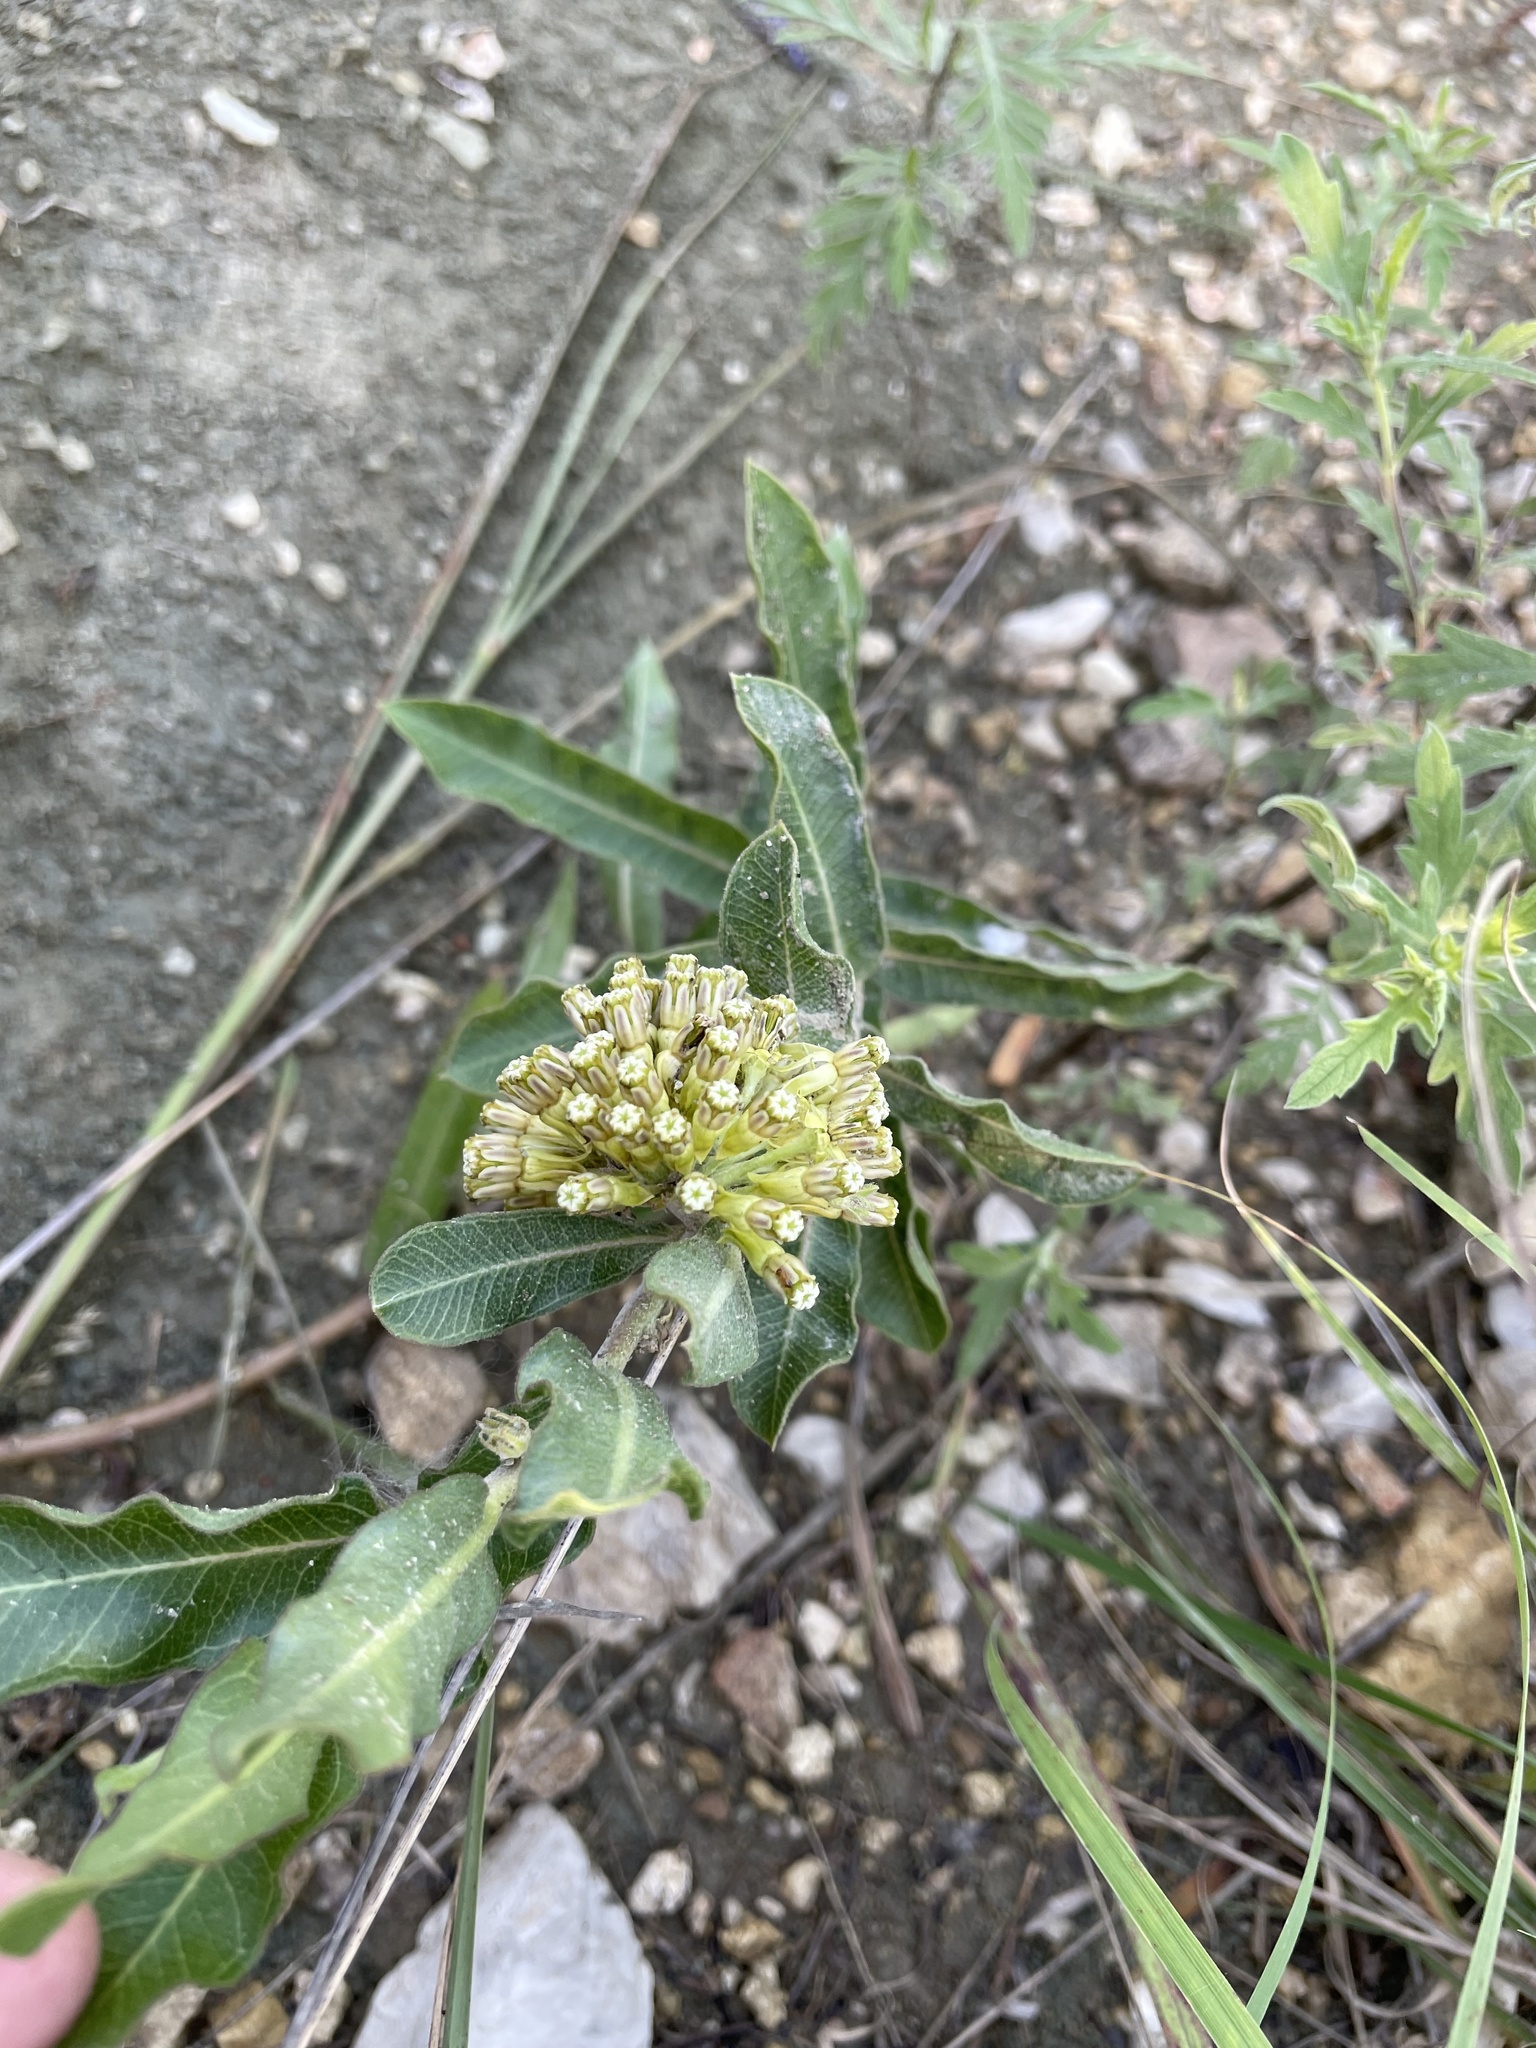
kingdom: Plantae
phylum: Tracheophyta
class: Magnoliopsida
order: Gentianales
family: Apocynaceae
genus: Asclepias
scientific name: Asclepias viridiflora
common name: Green comet milkweed
